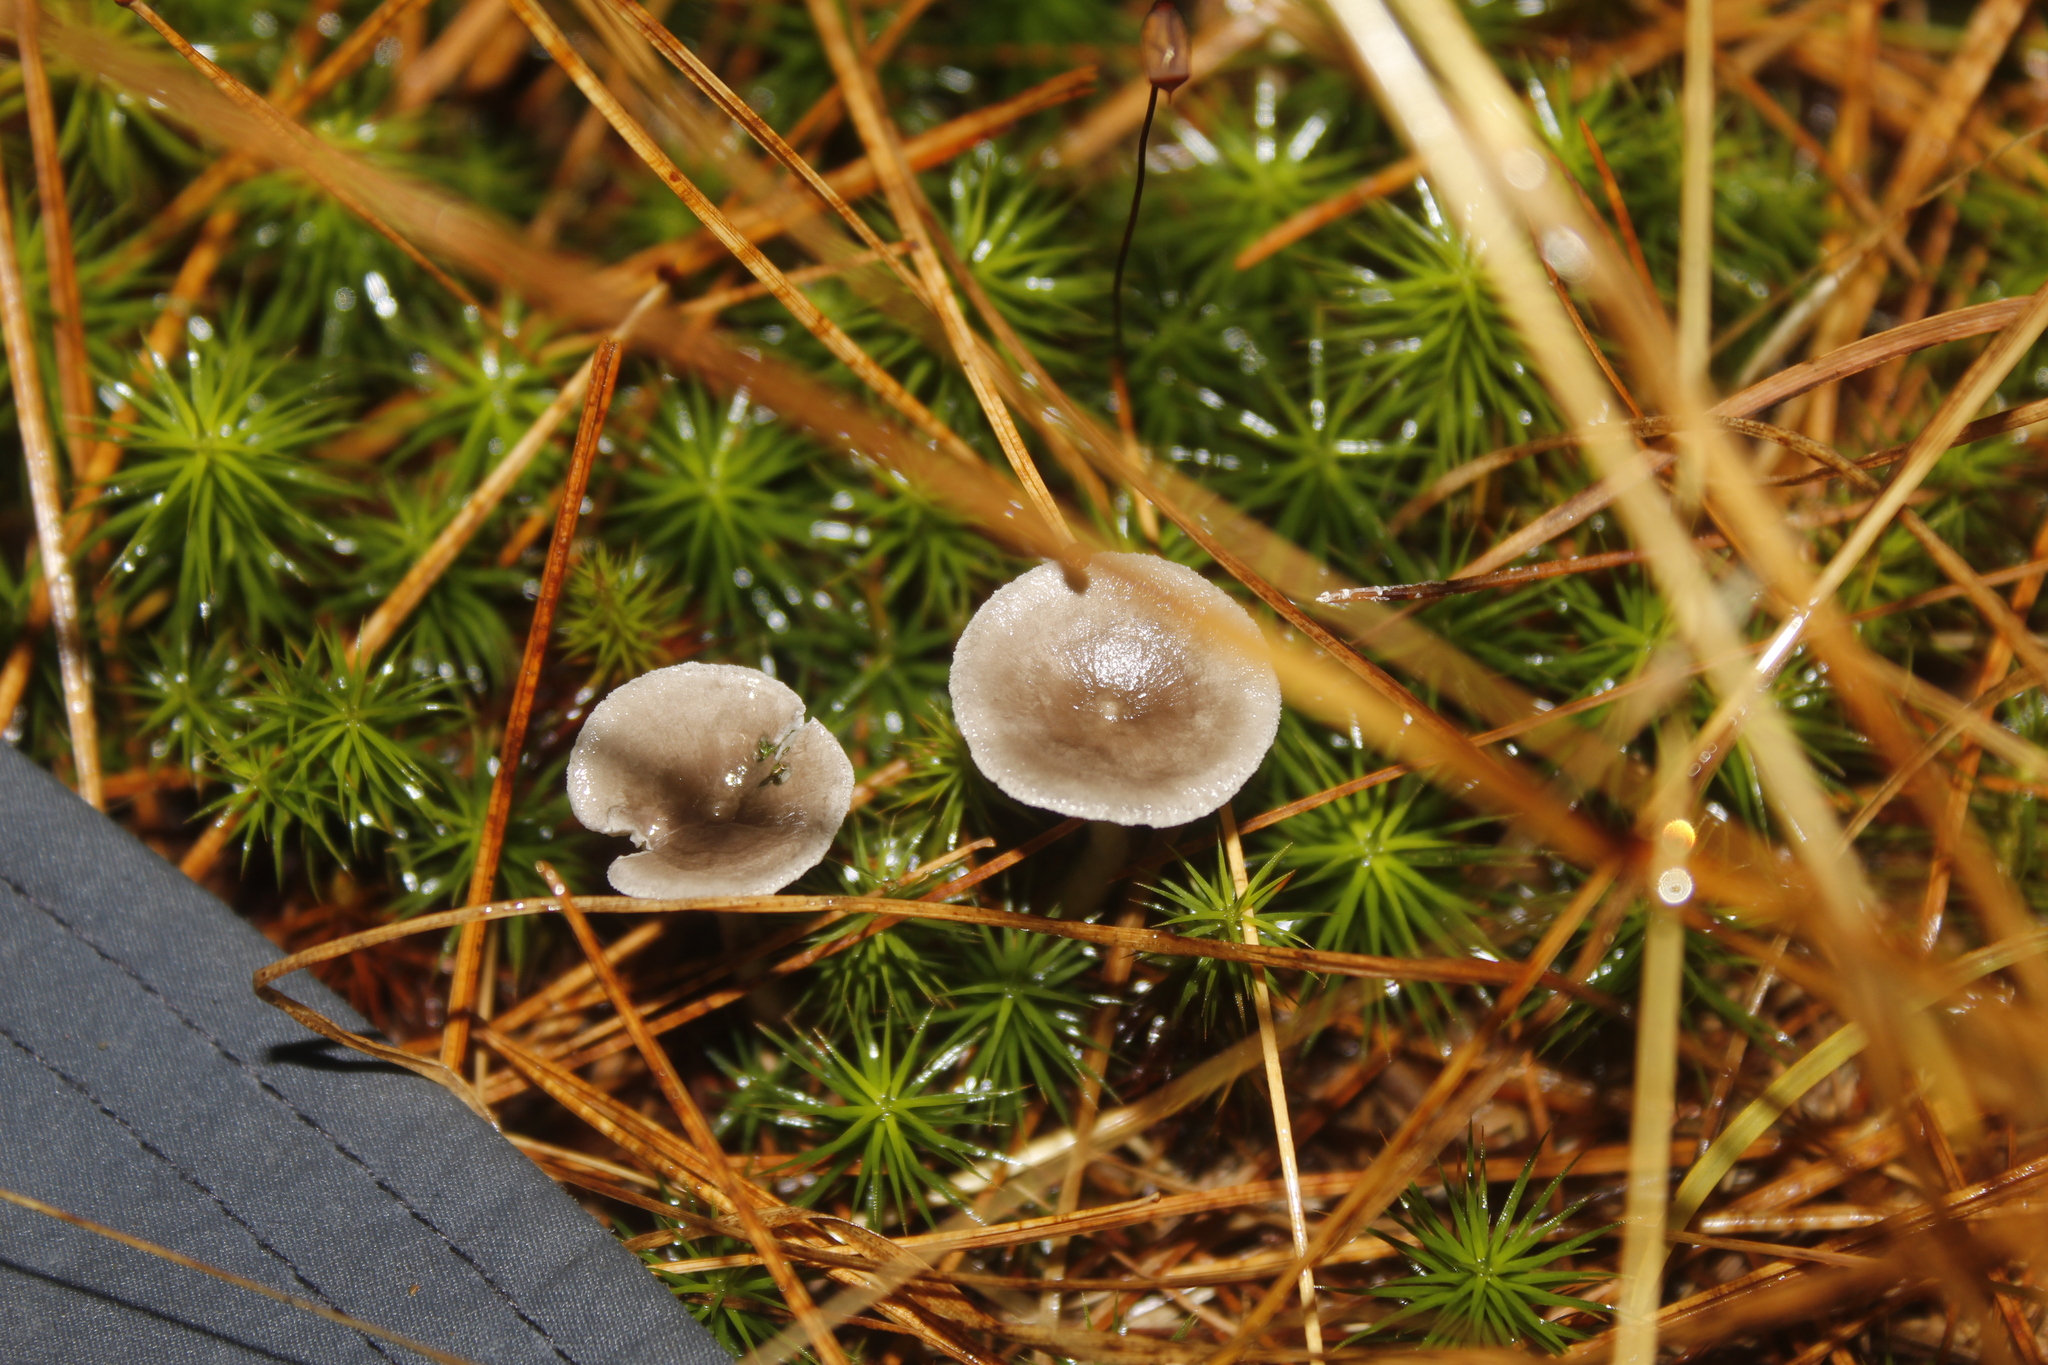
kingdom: Fungi
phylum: Basidiomycota
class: Agaricomycetes
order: Agaricales
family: Hygrophoraceae
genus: Cantharellula
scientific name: Cantharellula umbonata
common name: The humpback
